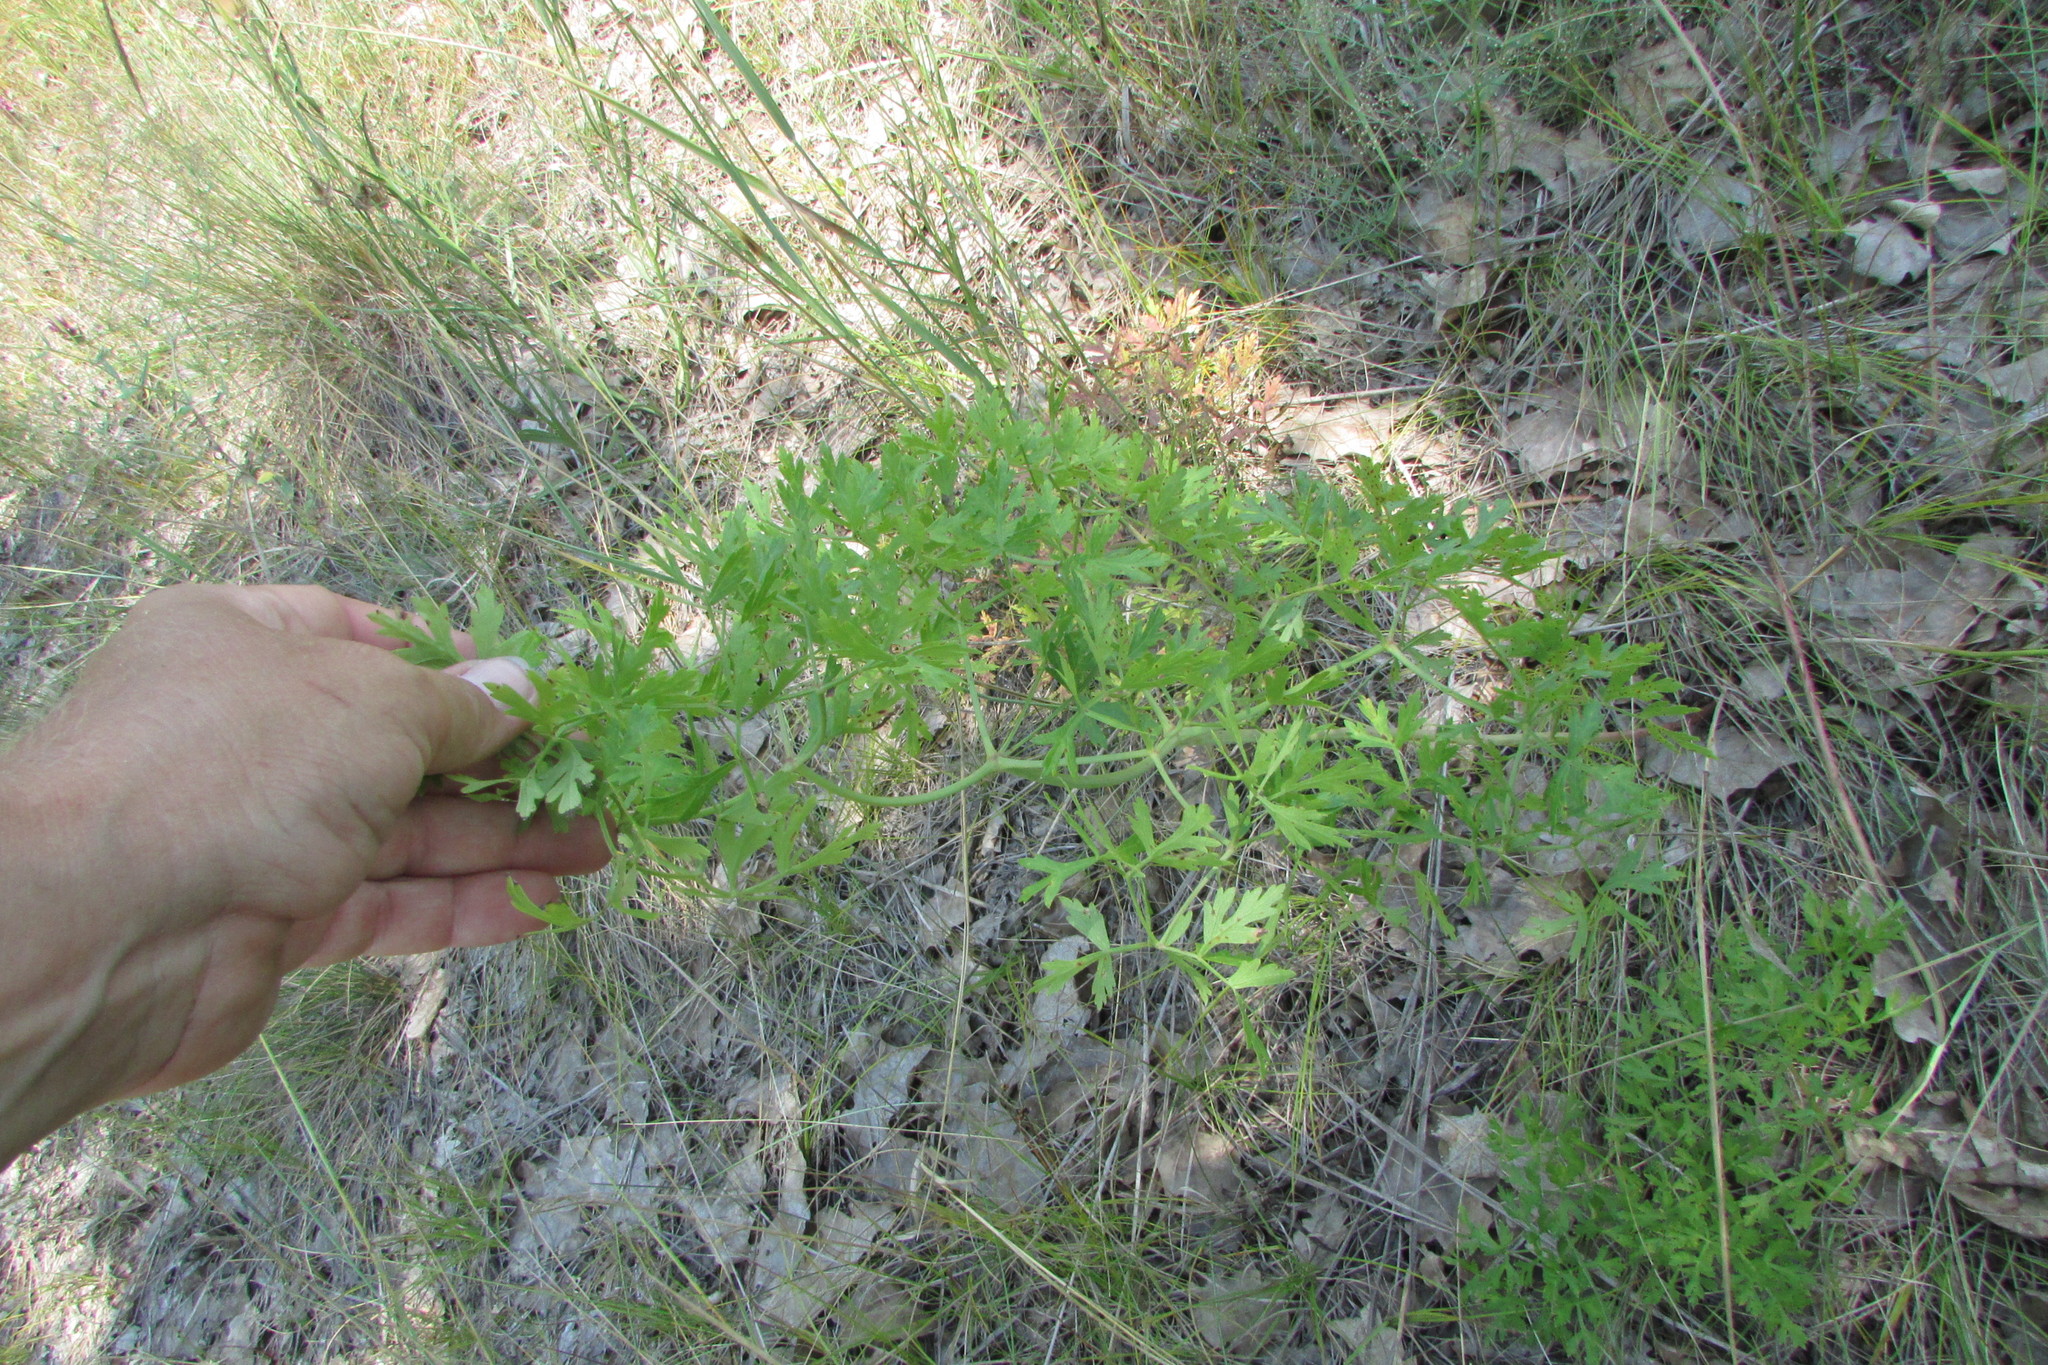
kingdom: Plantae
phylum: Tracheophyta
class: Magnoliopsida
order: Apiales
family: Apiaceae
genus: Oreoselinum
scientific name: Oreoselinum nigrum
